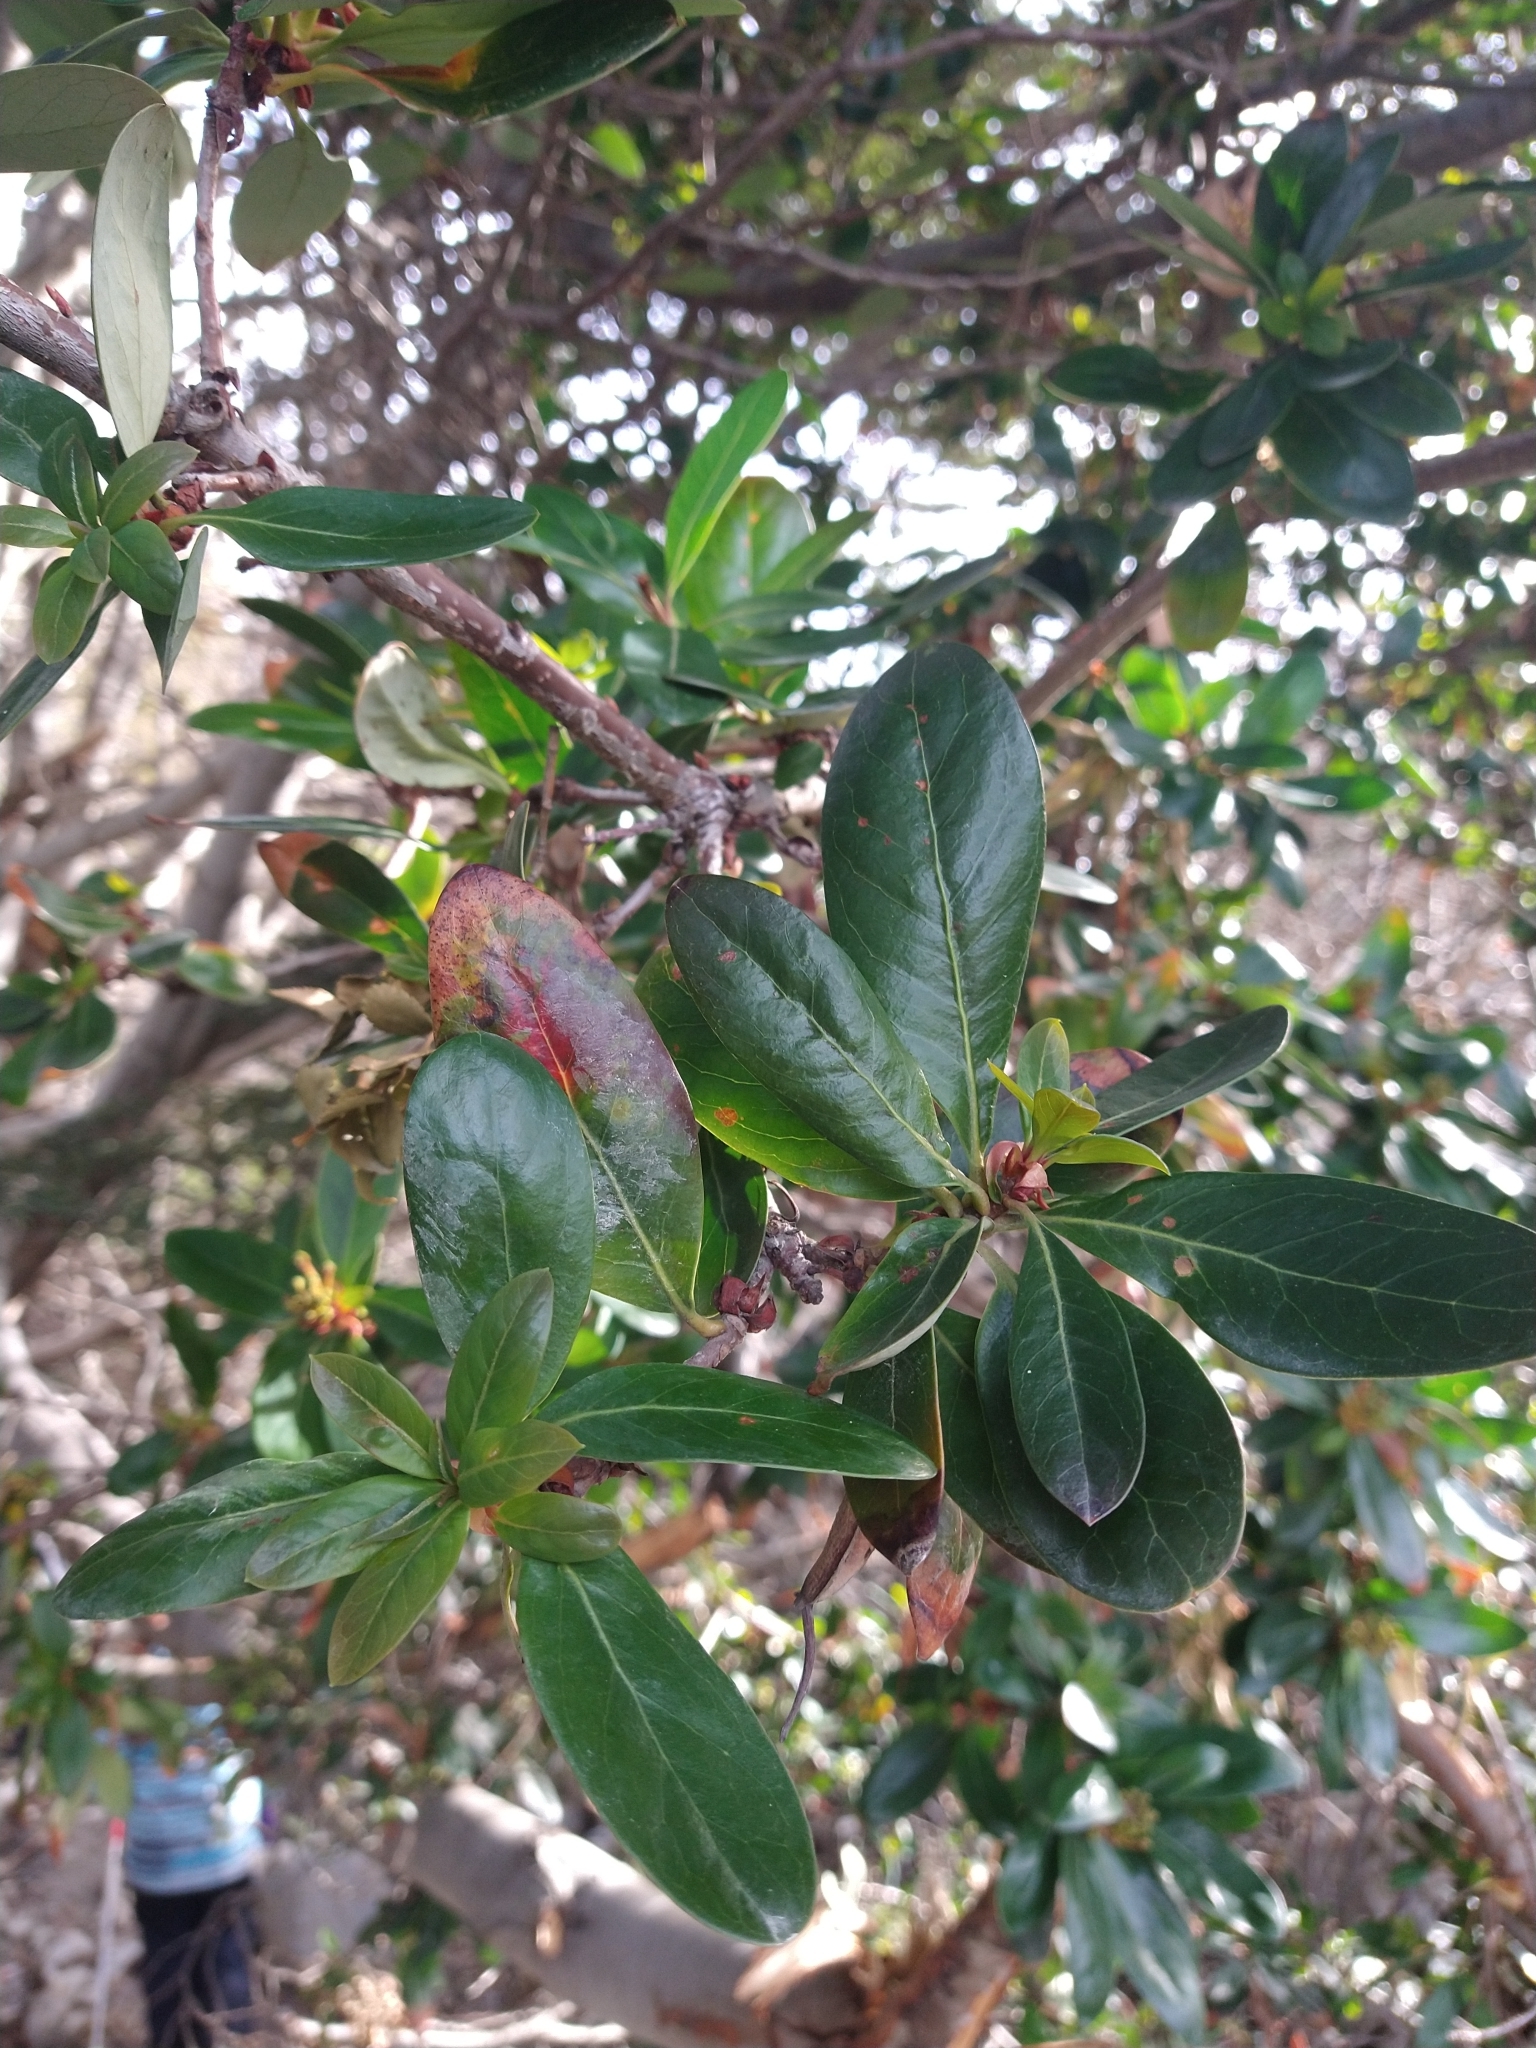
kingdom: Plantae
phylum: Tracheophyta
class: Magnoliopsida
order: Canellales
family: Winteraceae
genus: Drimys
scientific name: Drimys winteri
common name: Winter's-bark
